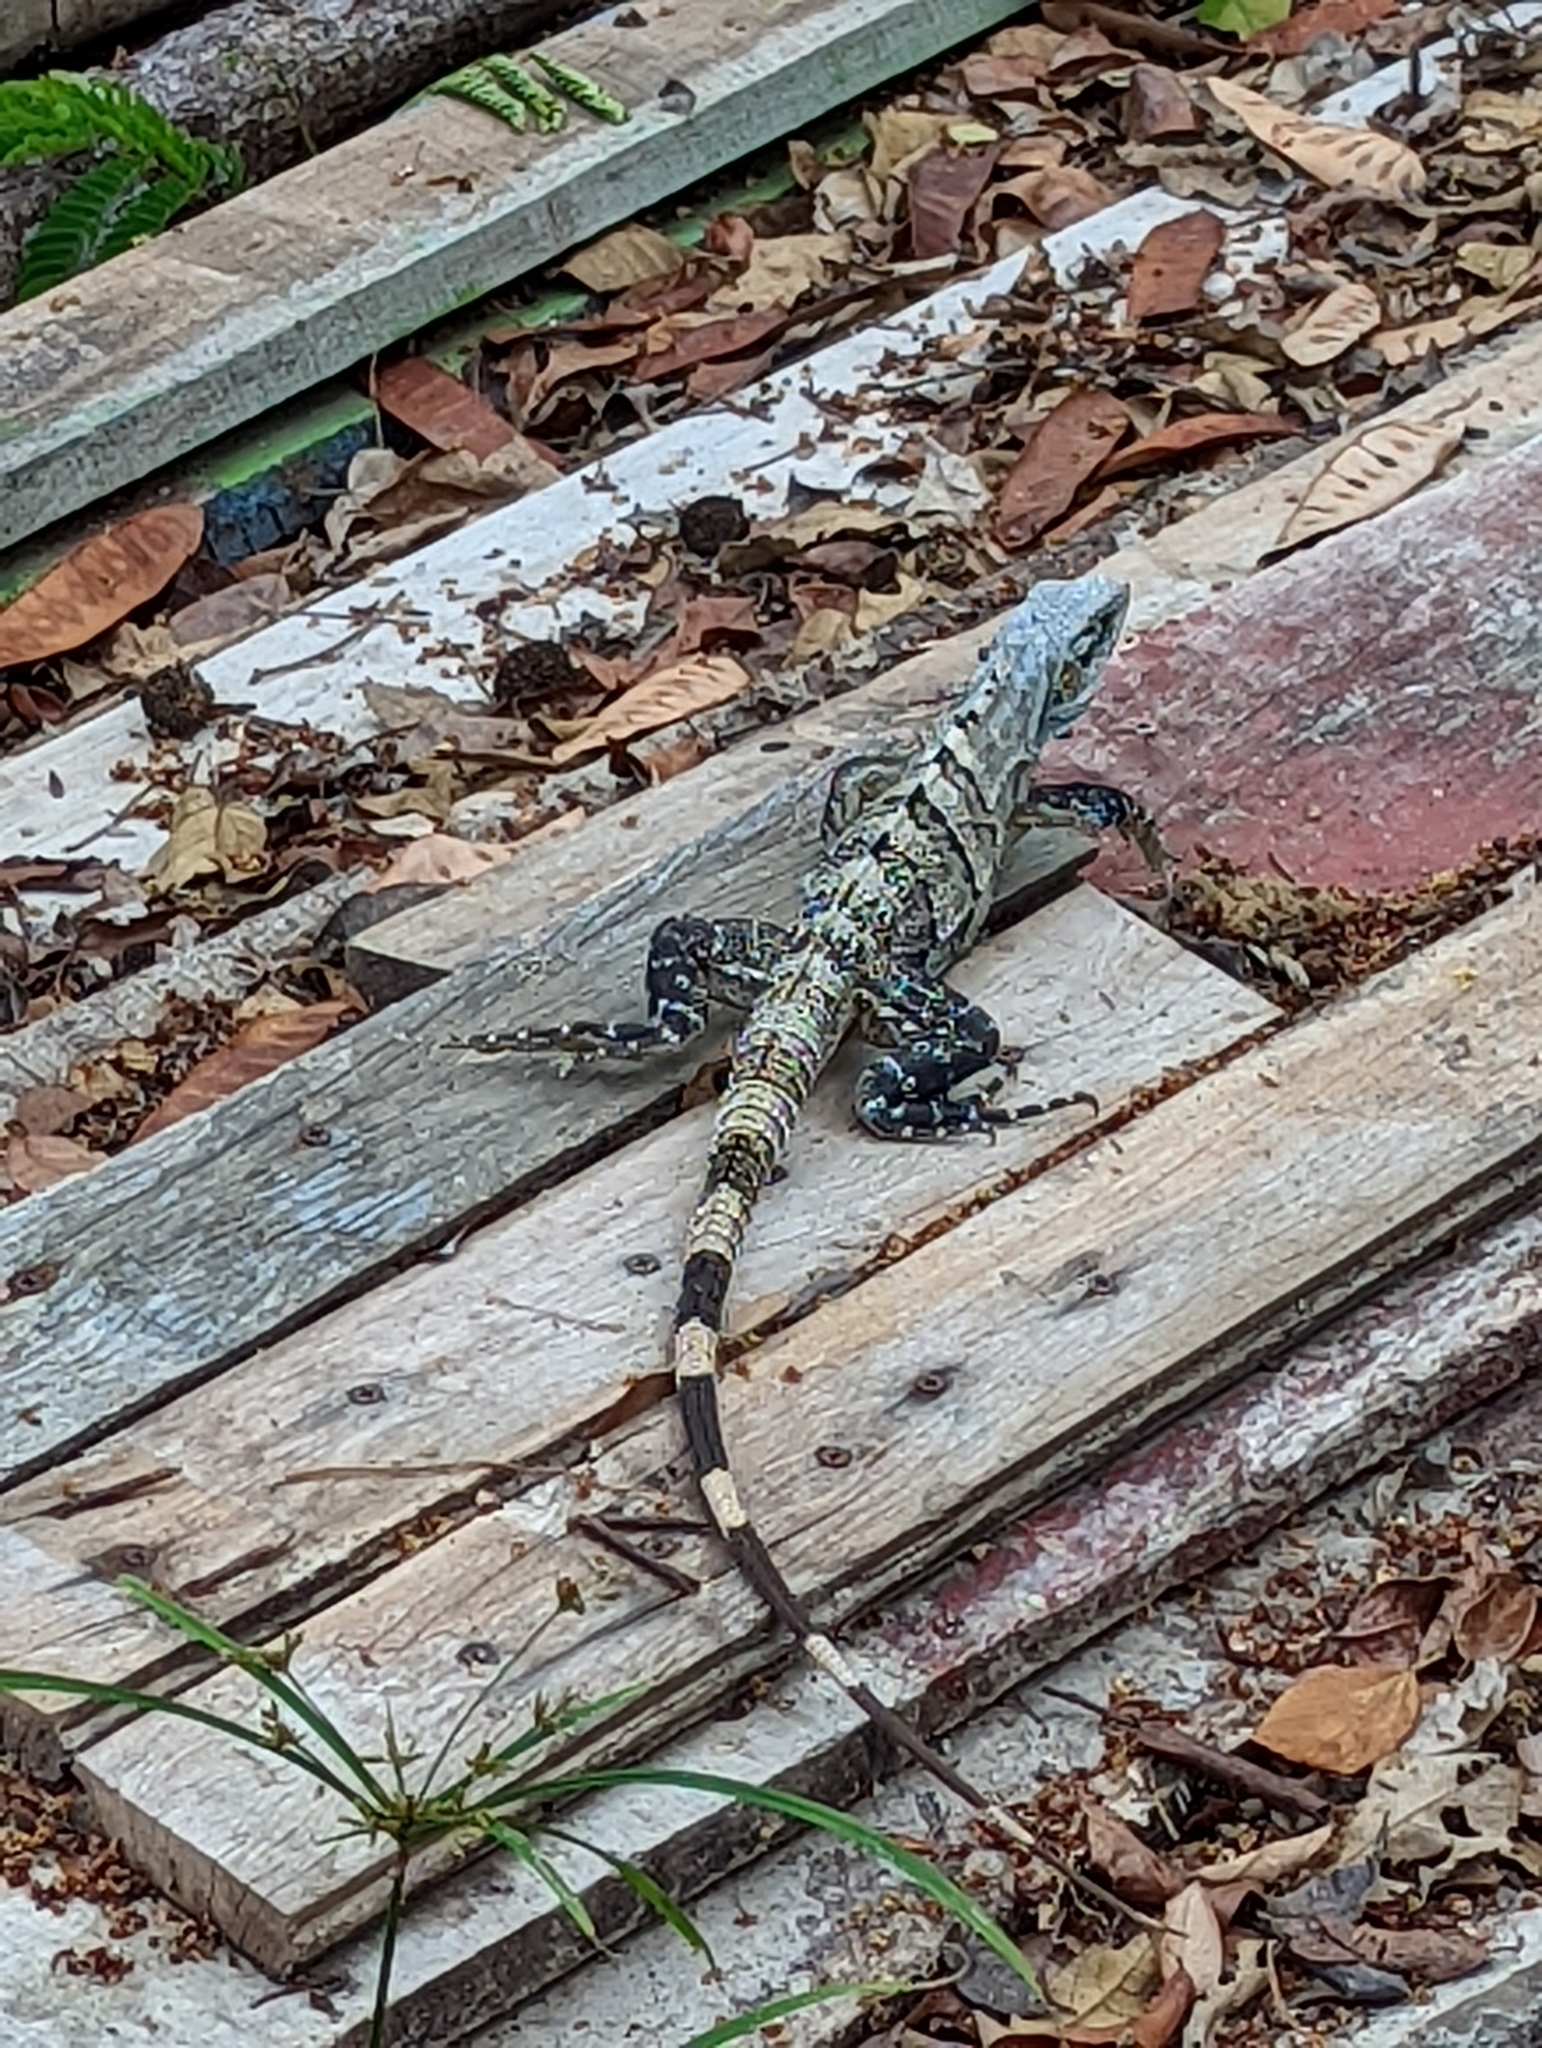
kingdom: Animalia
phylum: Chordata
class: Squamata
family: Iguanidae
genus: Ctenosaura
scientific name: Ctenosaura similis
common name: Black spiny-tailed iguana
